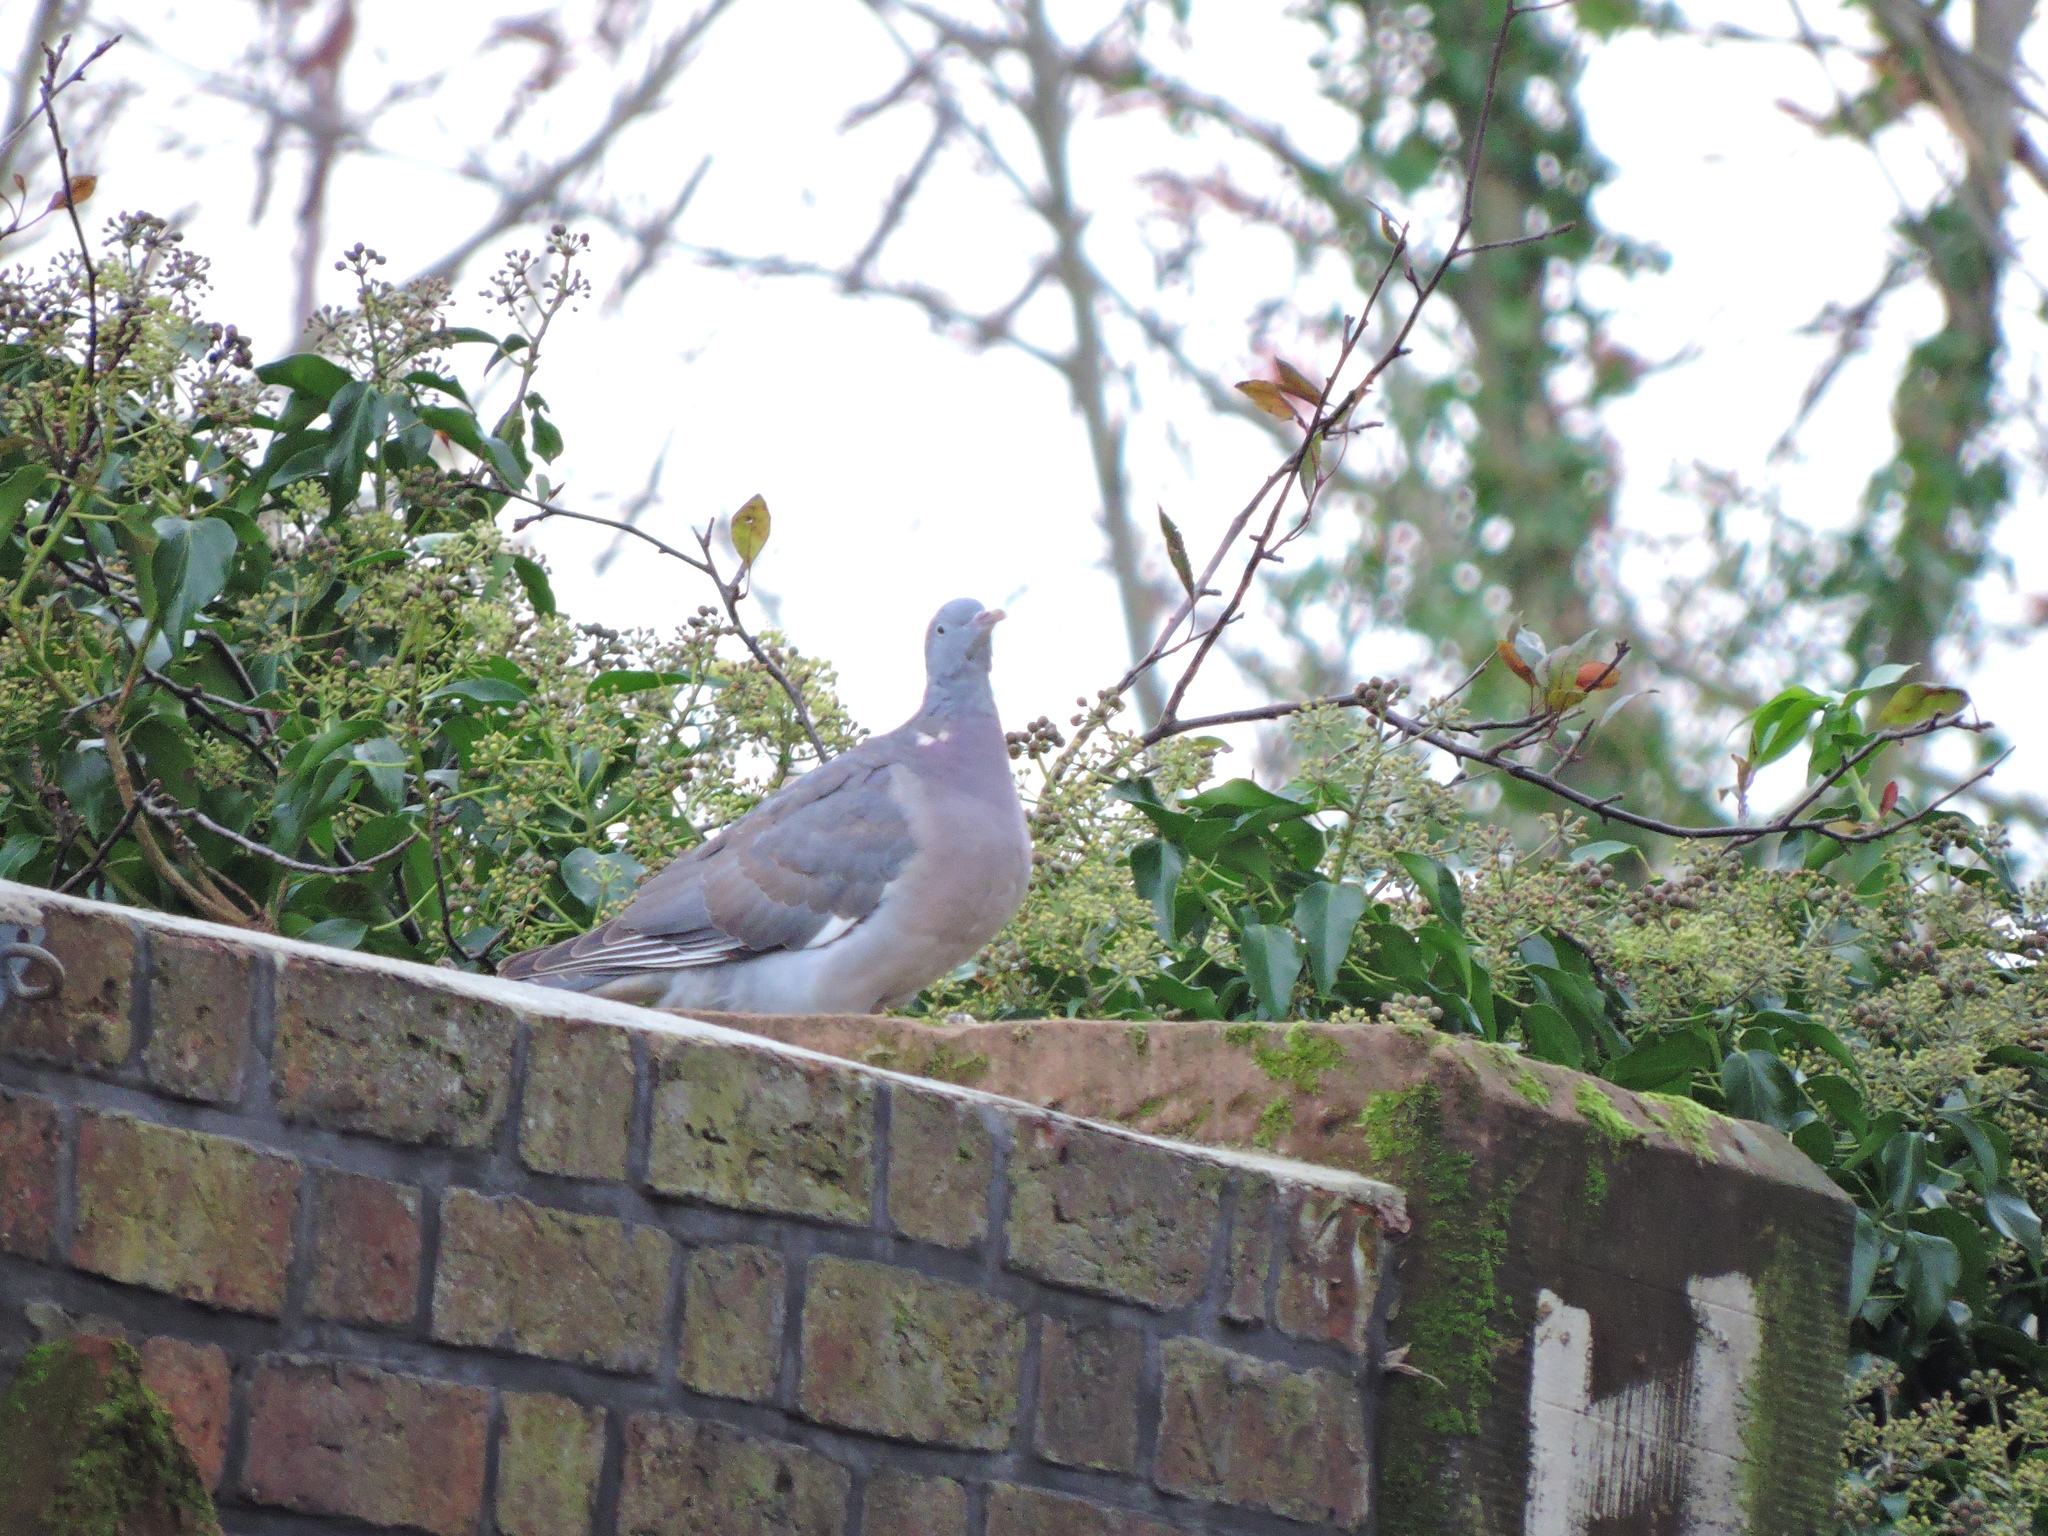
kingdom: Animalia
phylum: Chordata
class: Aves
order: Columbiformes
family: Columbidae
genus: Columba
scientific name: Columba palumbus
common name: Common wood pigeon
